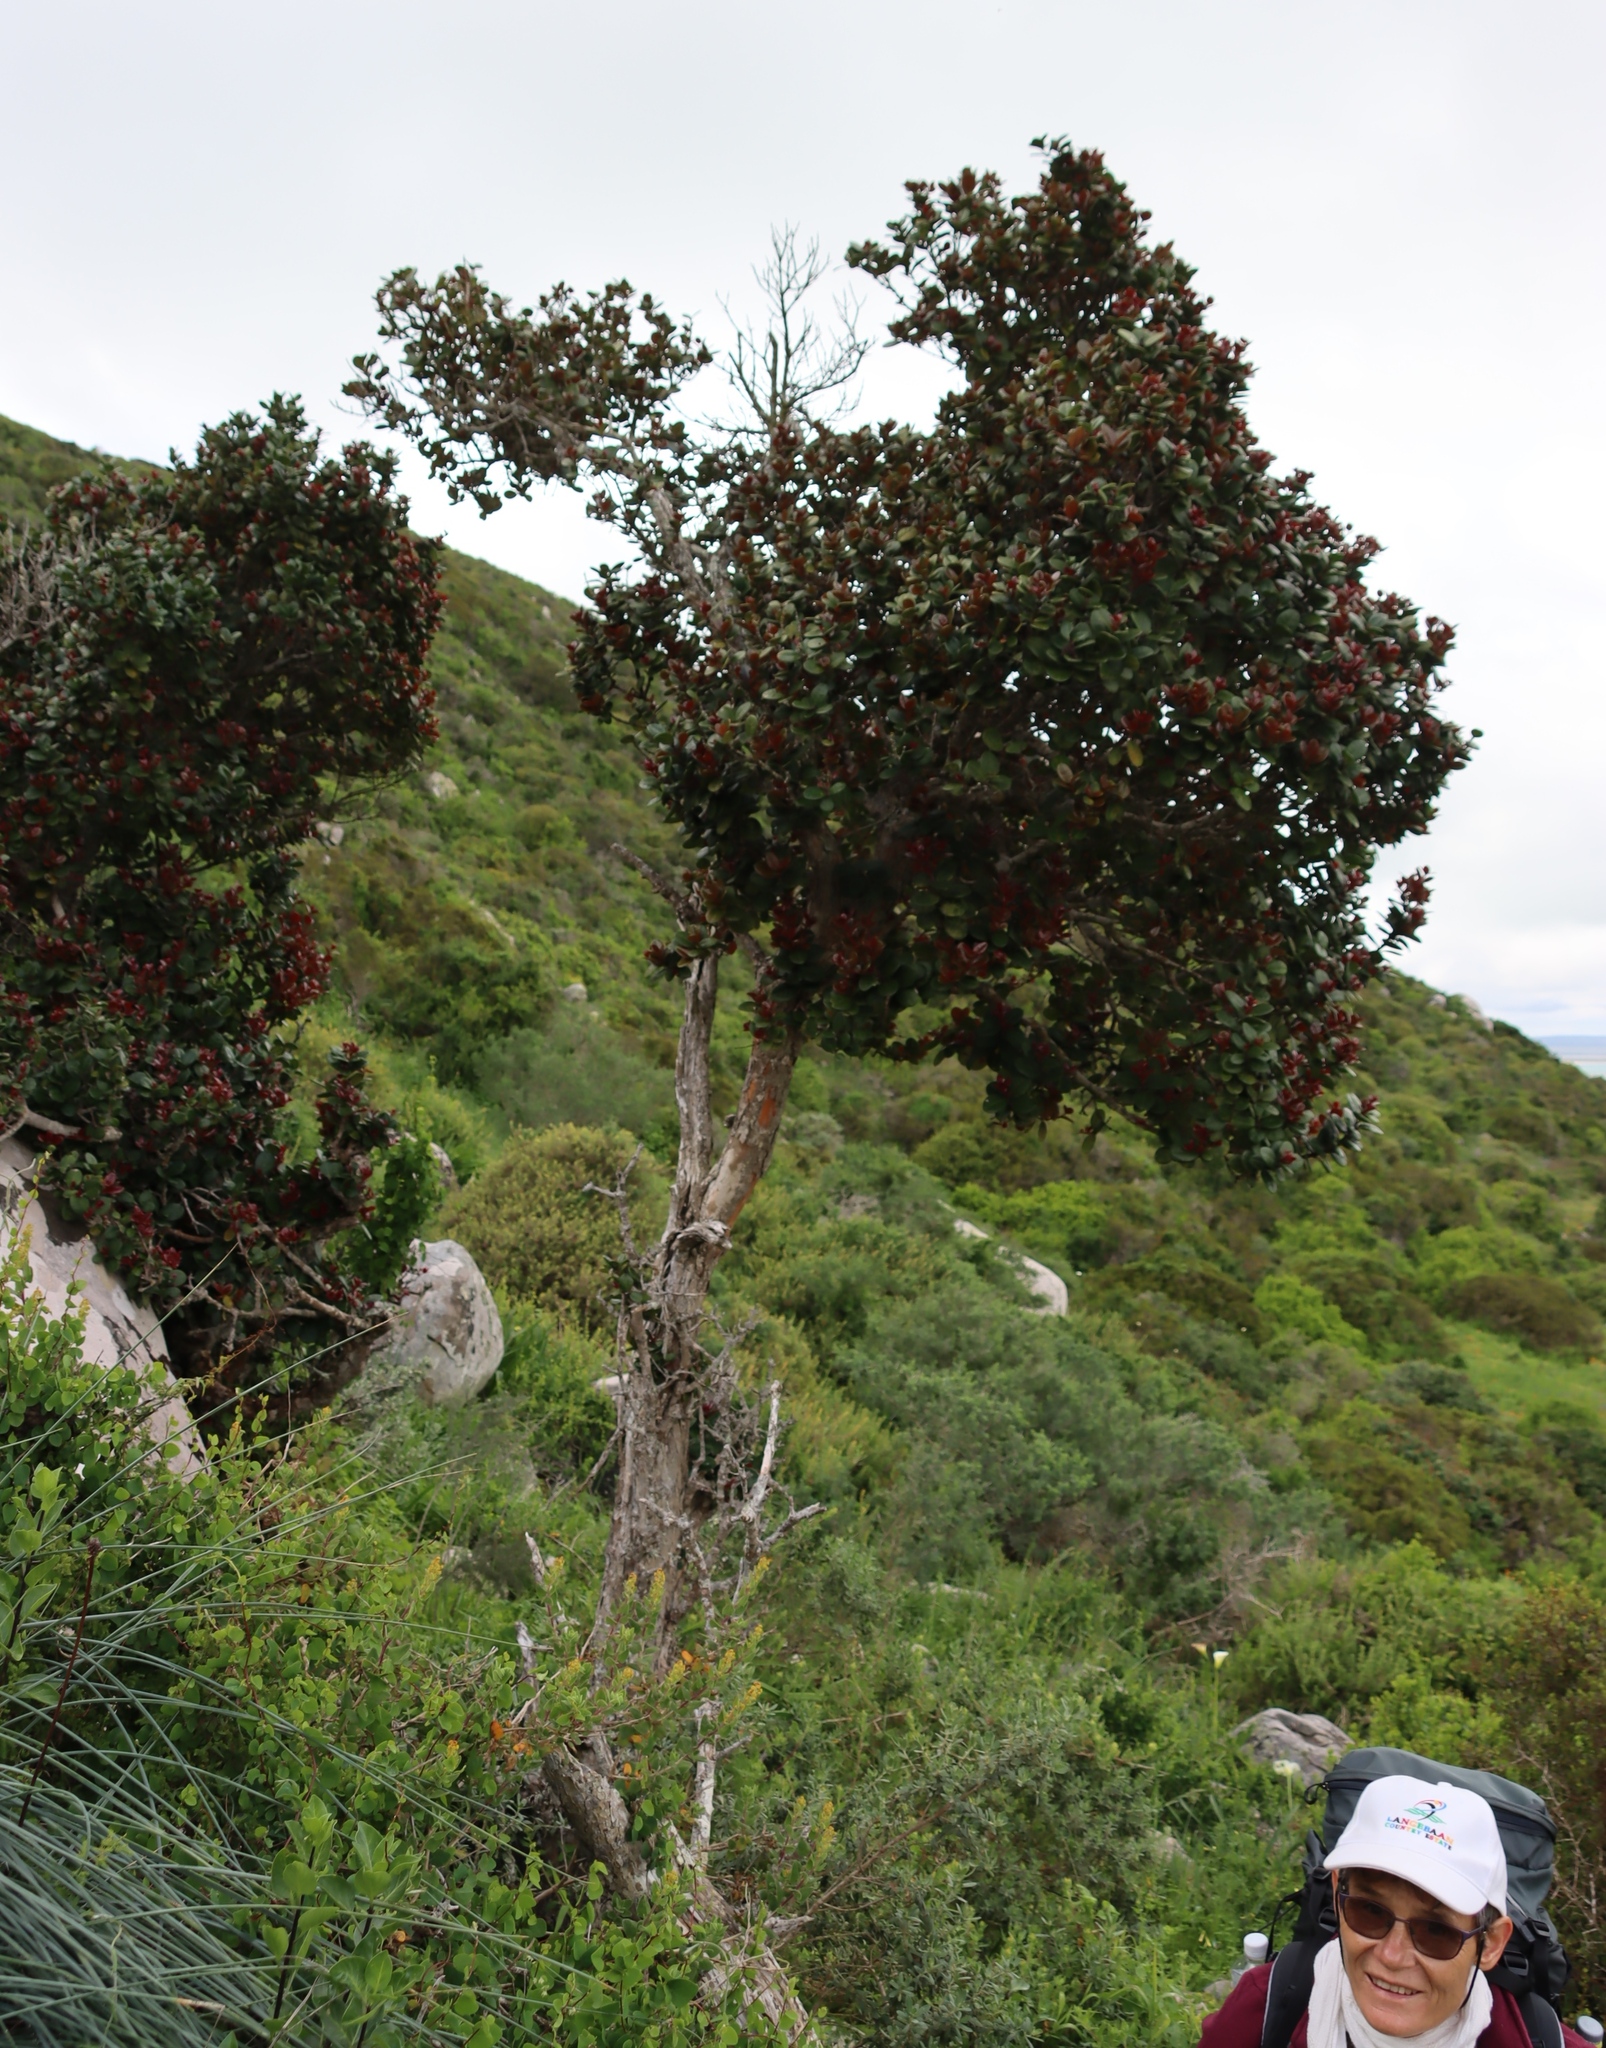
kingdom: Plantae
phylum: Tracheophyta
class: Magnoliopsida
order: Celastrales
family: Celastraceae
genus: Maurocenia
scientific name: Maurocenia frangula
